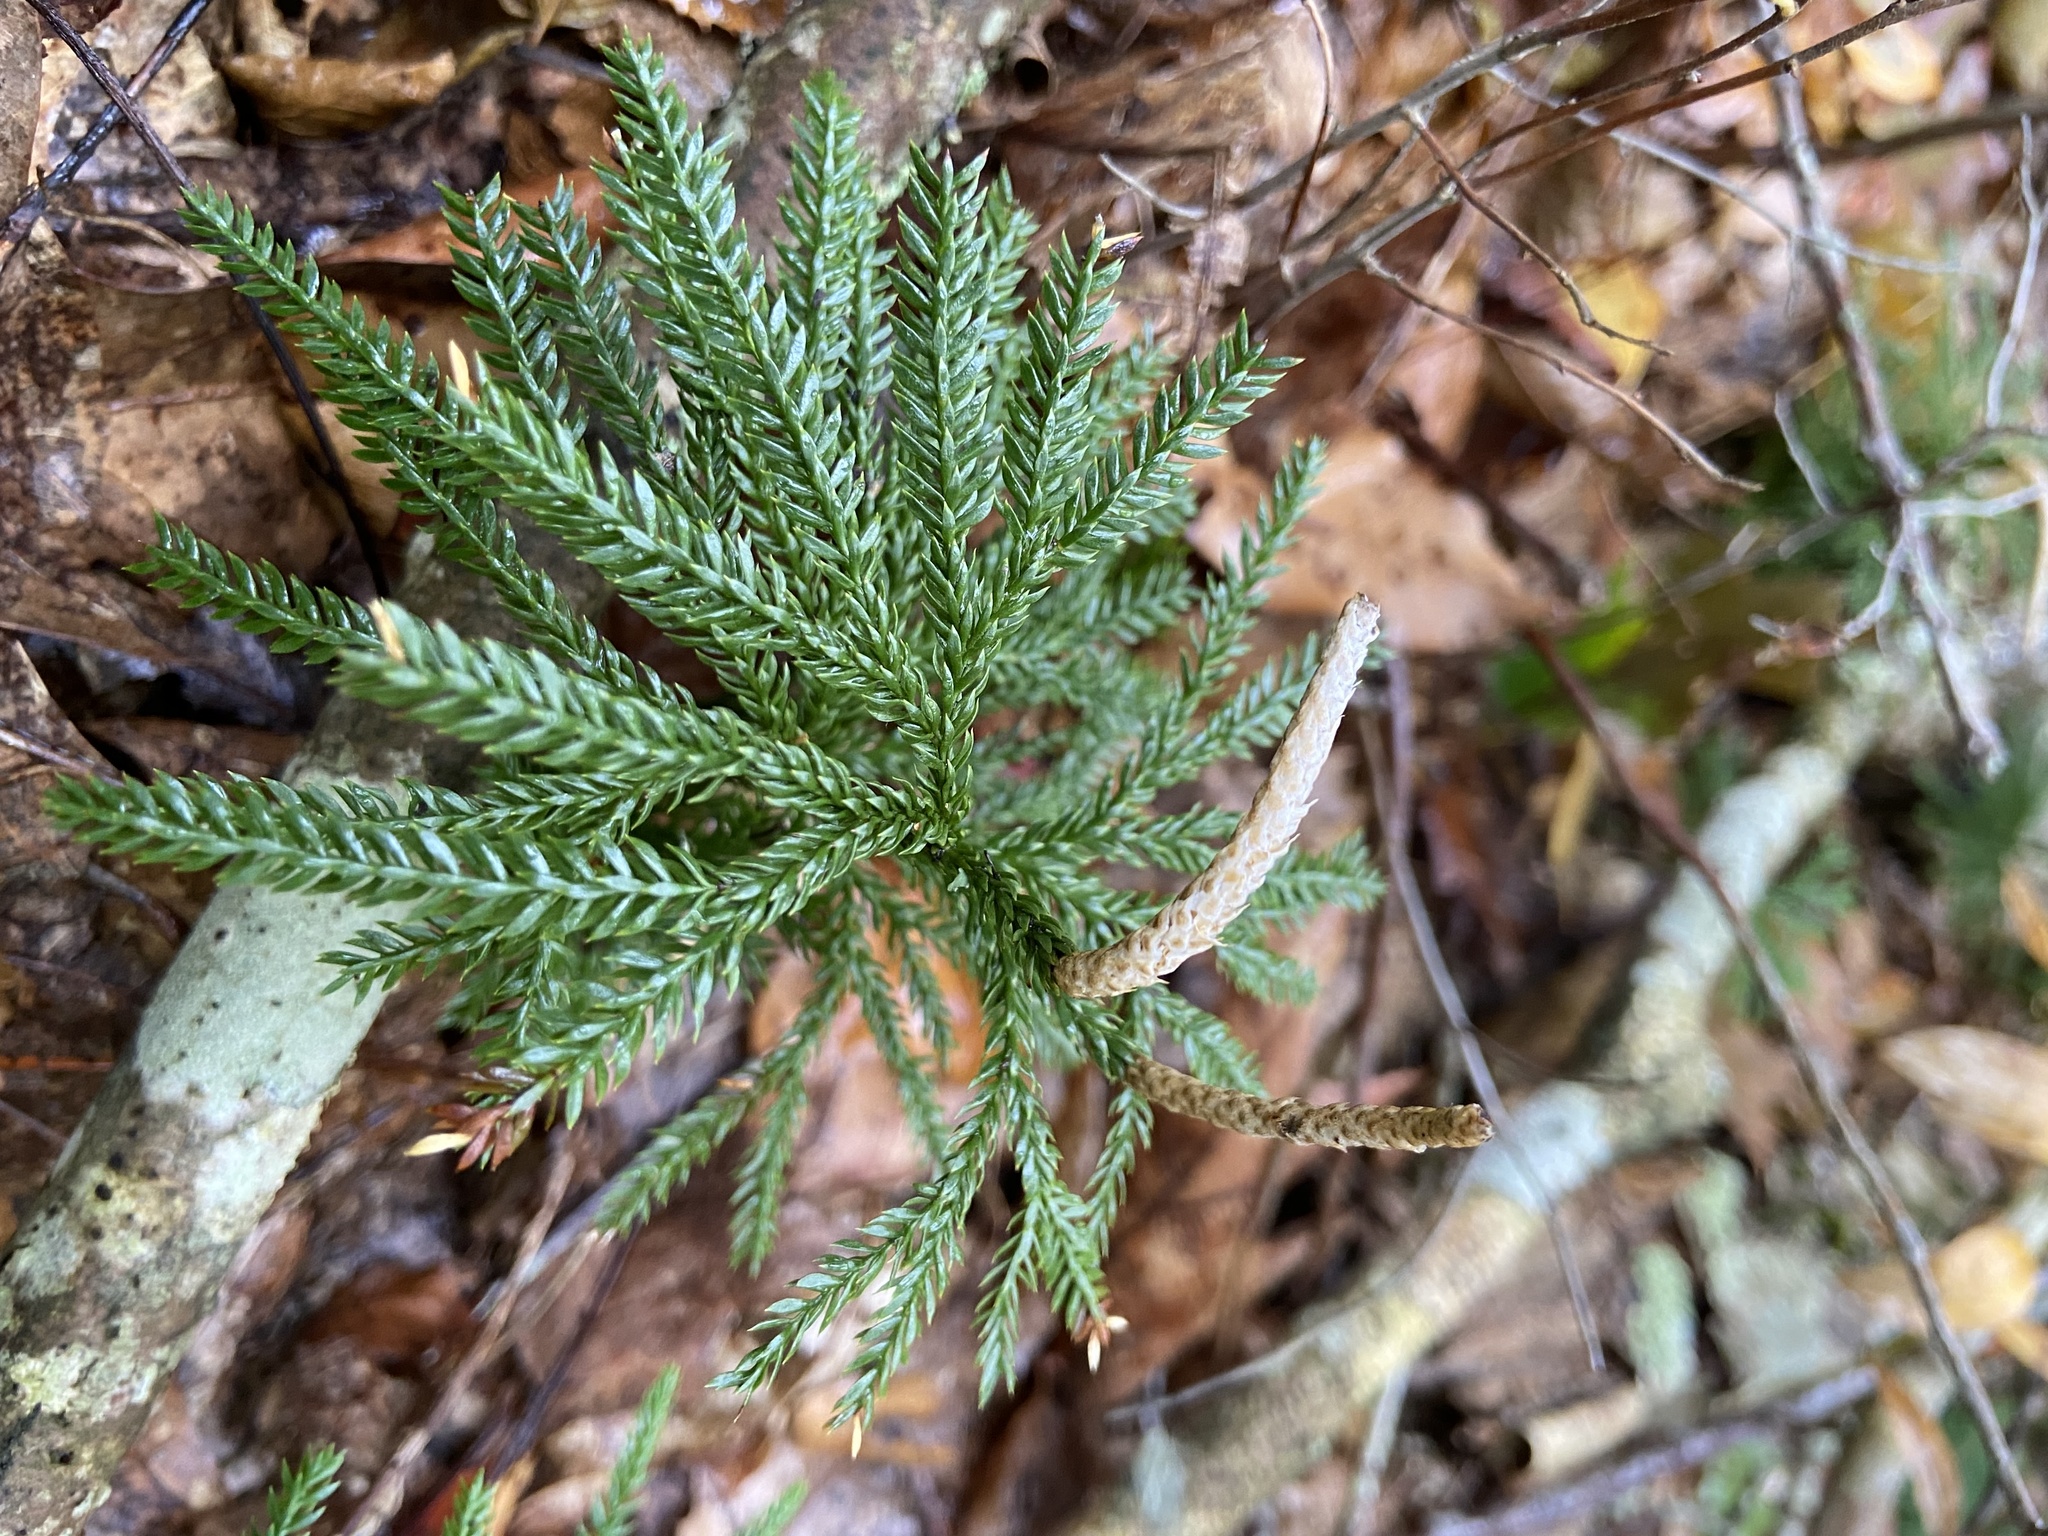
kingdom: Plantae
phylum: Tracheophyta
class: Lycopodiopsida
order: Lycopodiales
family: Lycopodiaceae
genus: Dendrolycopodium
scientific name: Dendrolycopodium obscurum
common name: Common ground-pine
